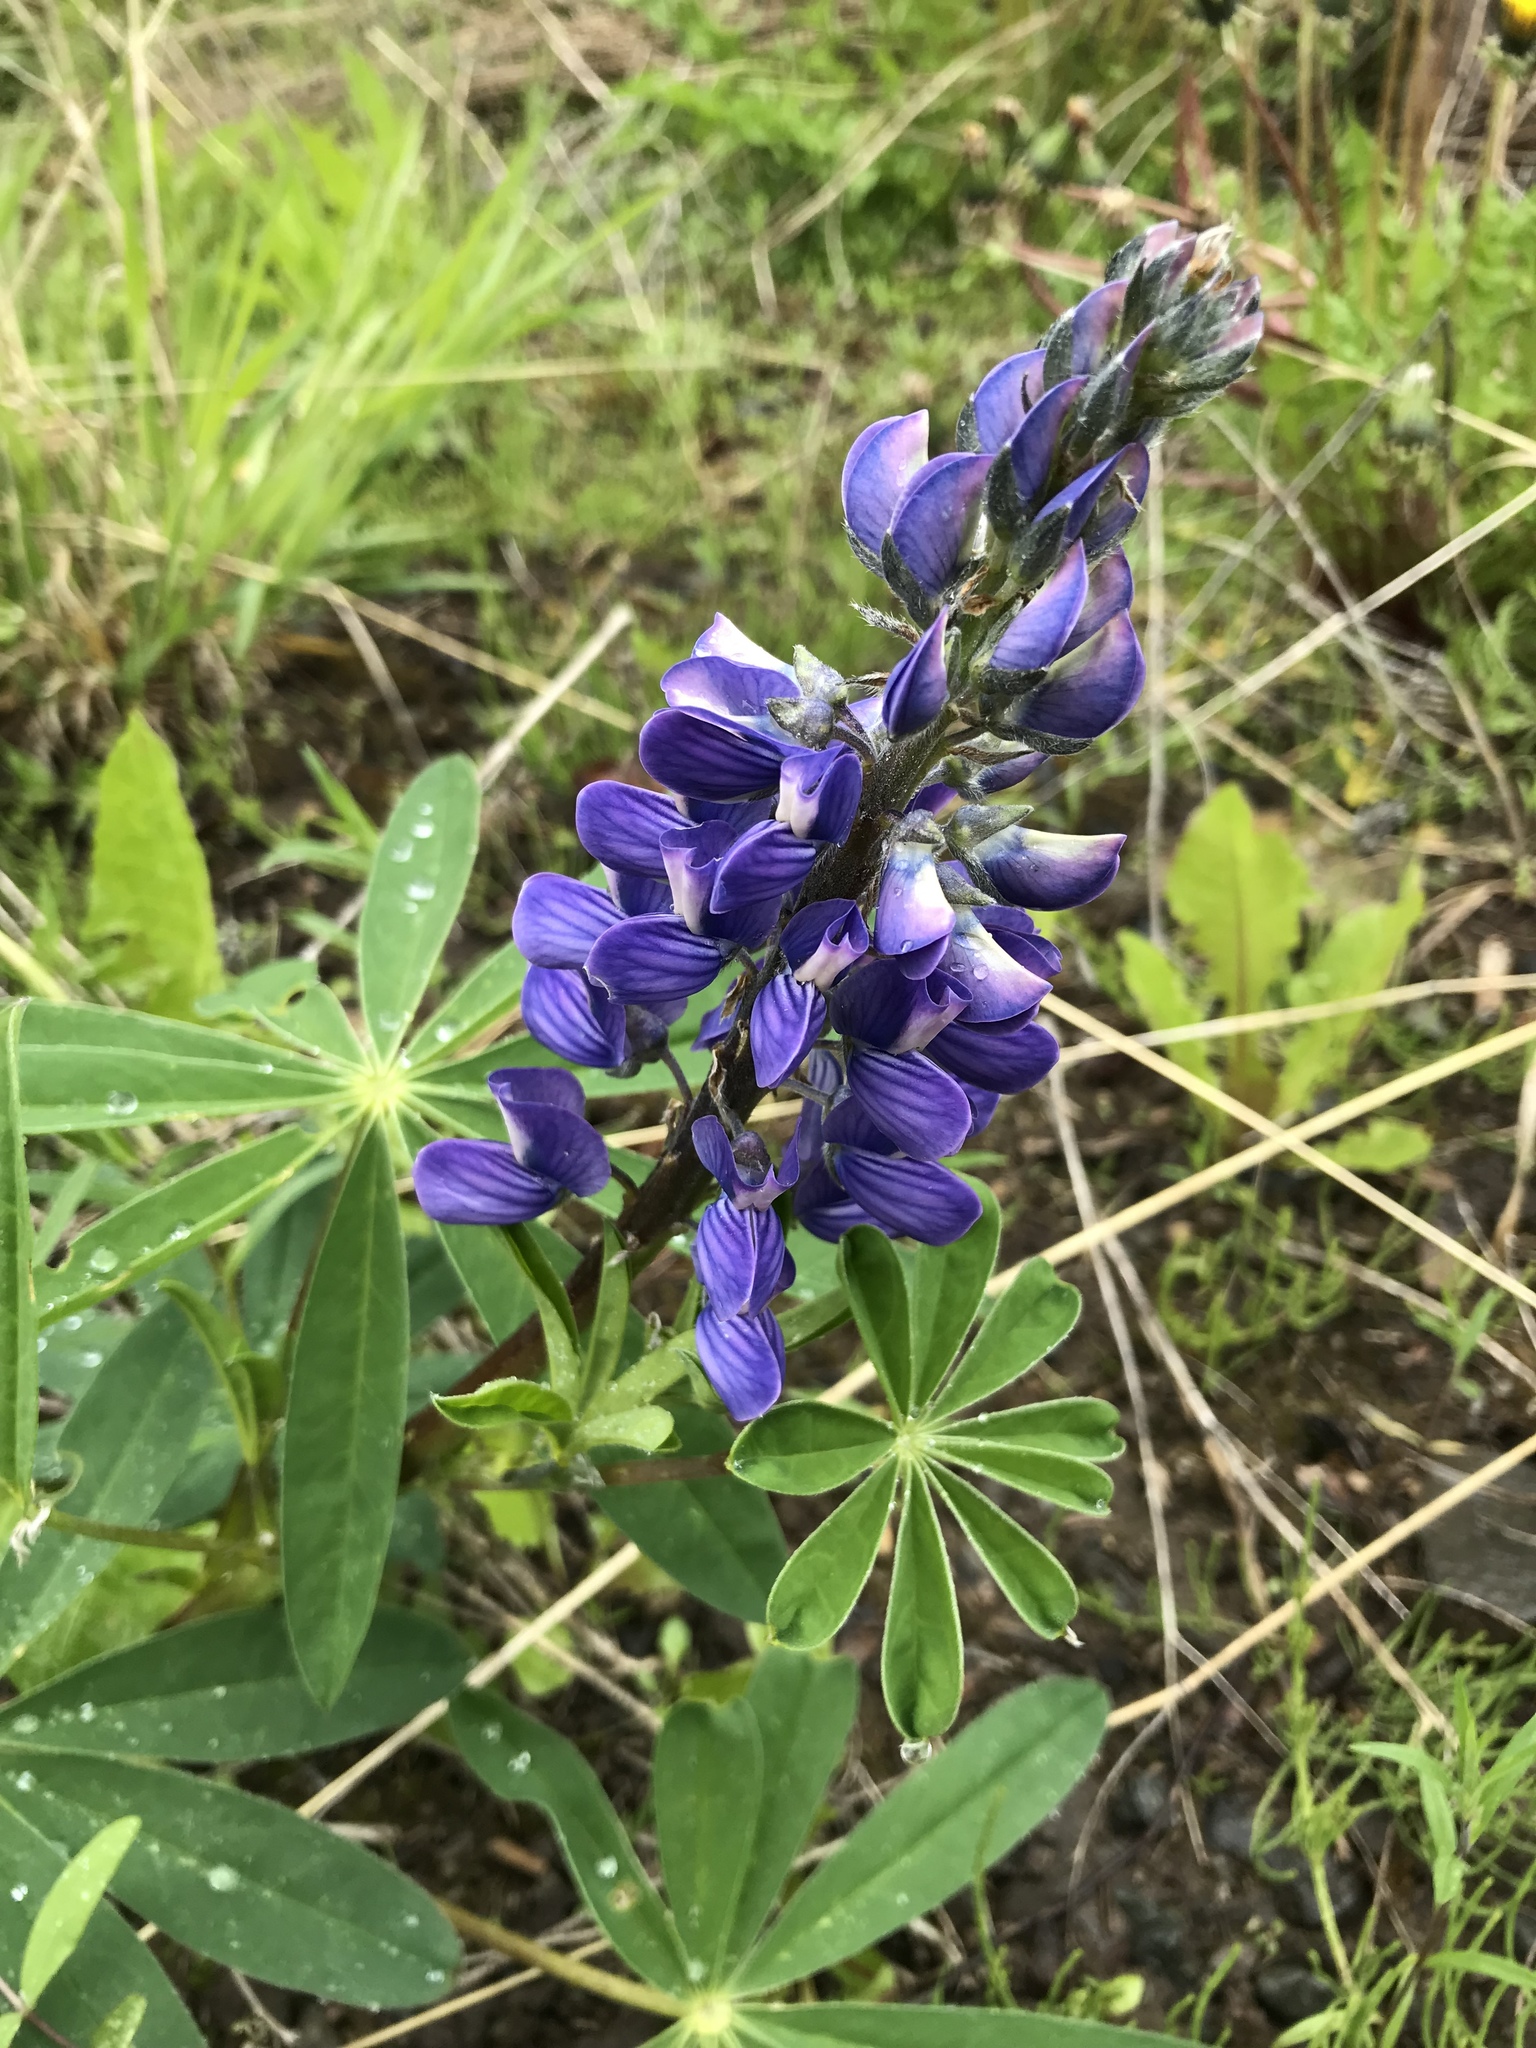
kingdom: Plantae
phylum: Tracheophyta
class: Magnoliopsida
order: Fabales
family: Fabaceae
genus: Lupinus
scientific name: Lupinus arcticus
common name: Arctic lupine
